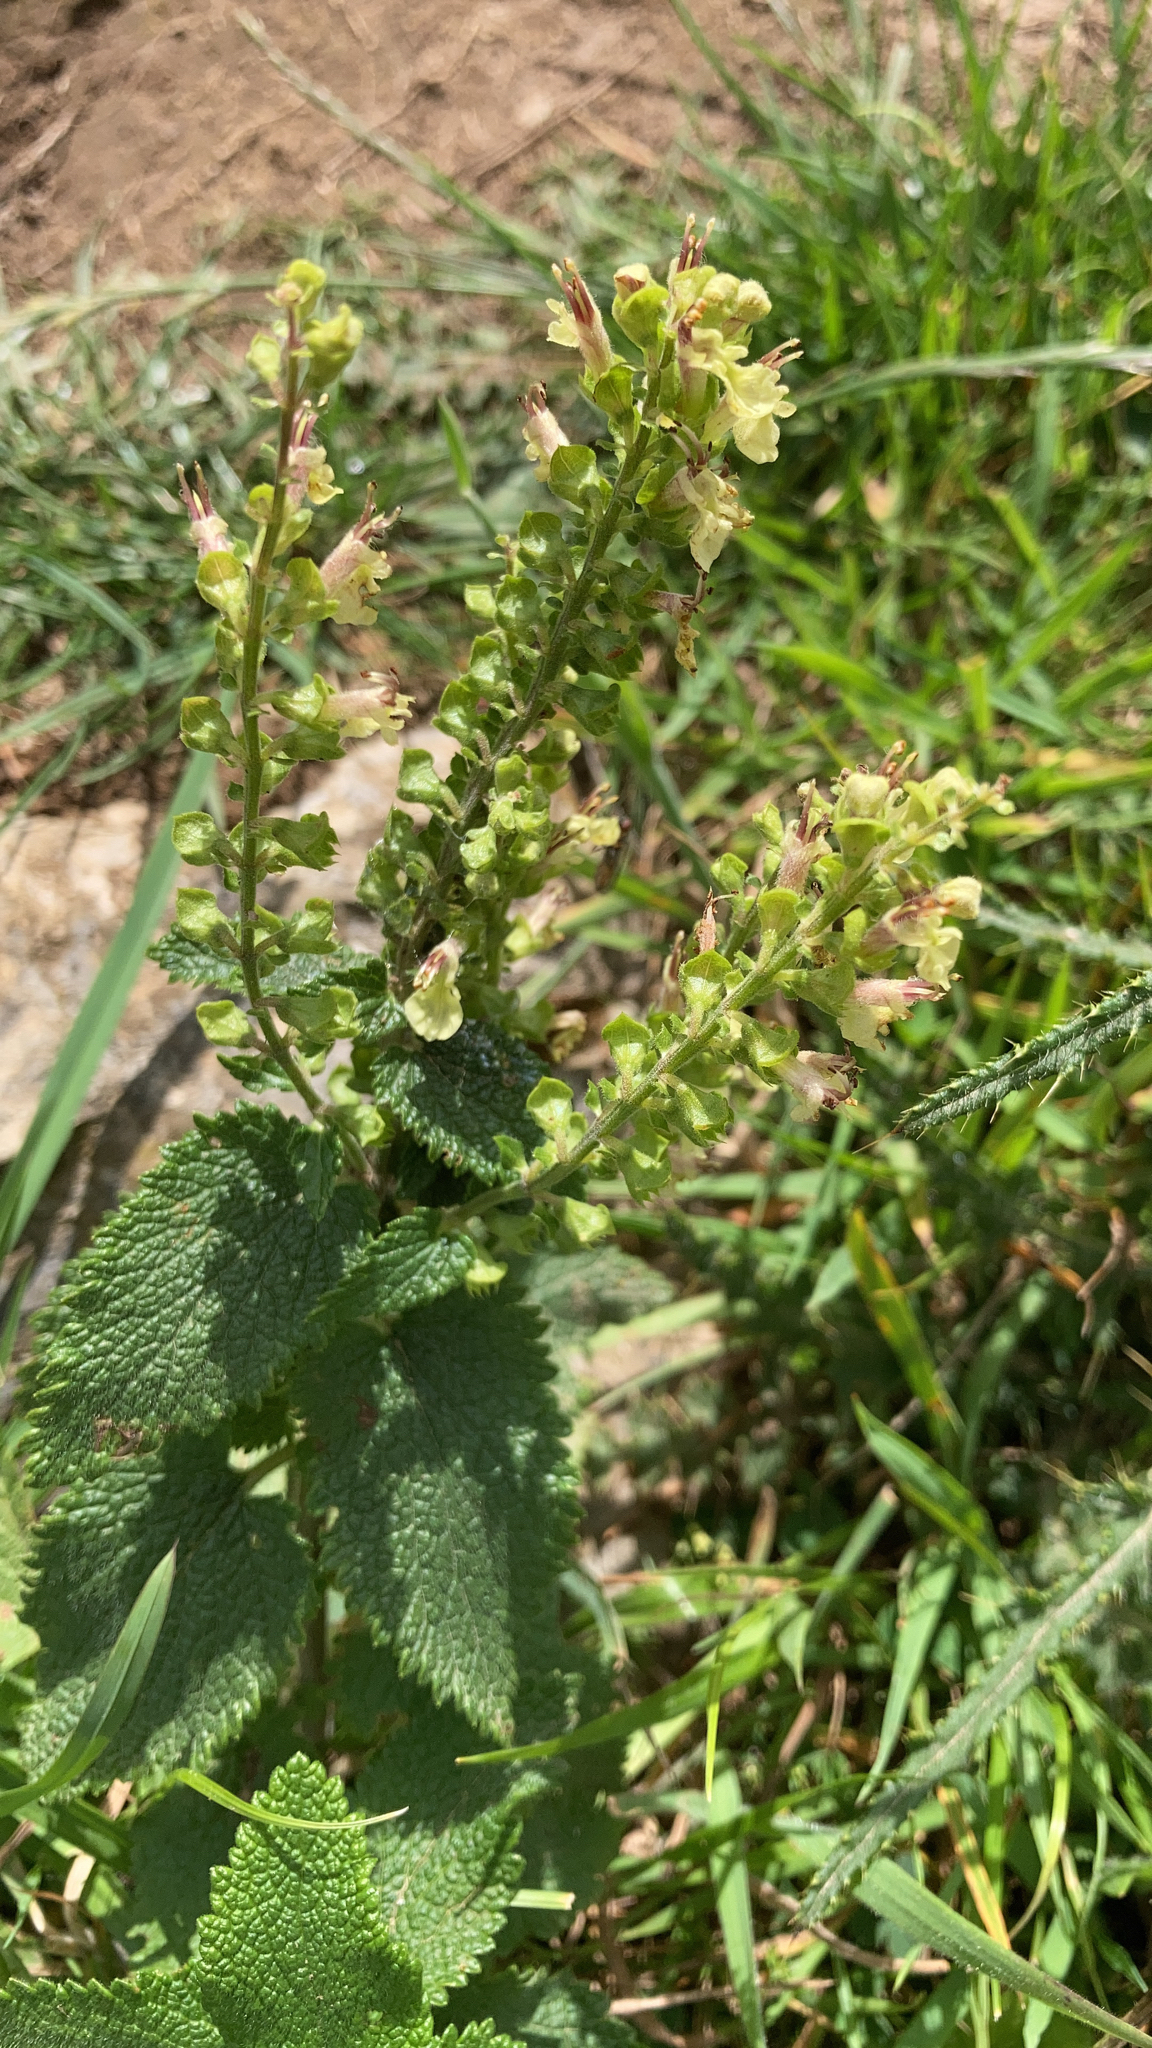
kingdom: Plantae
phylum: Tracheophyta
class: Magnoliopsida
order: Lamiales
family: Lamiaceae
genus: Teucrium
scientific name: Teucrium scorodonia
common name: Woodland germander
